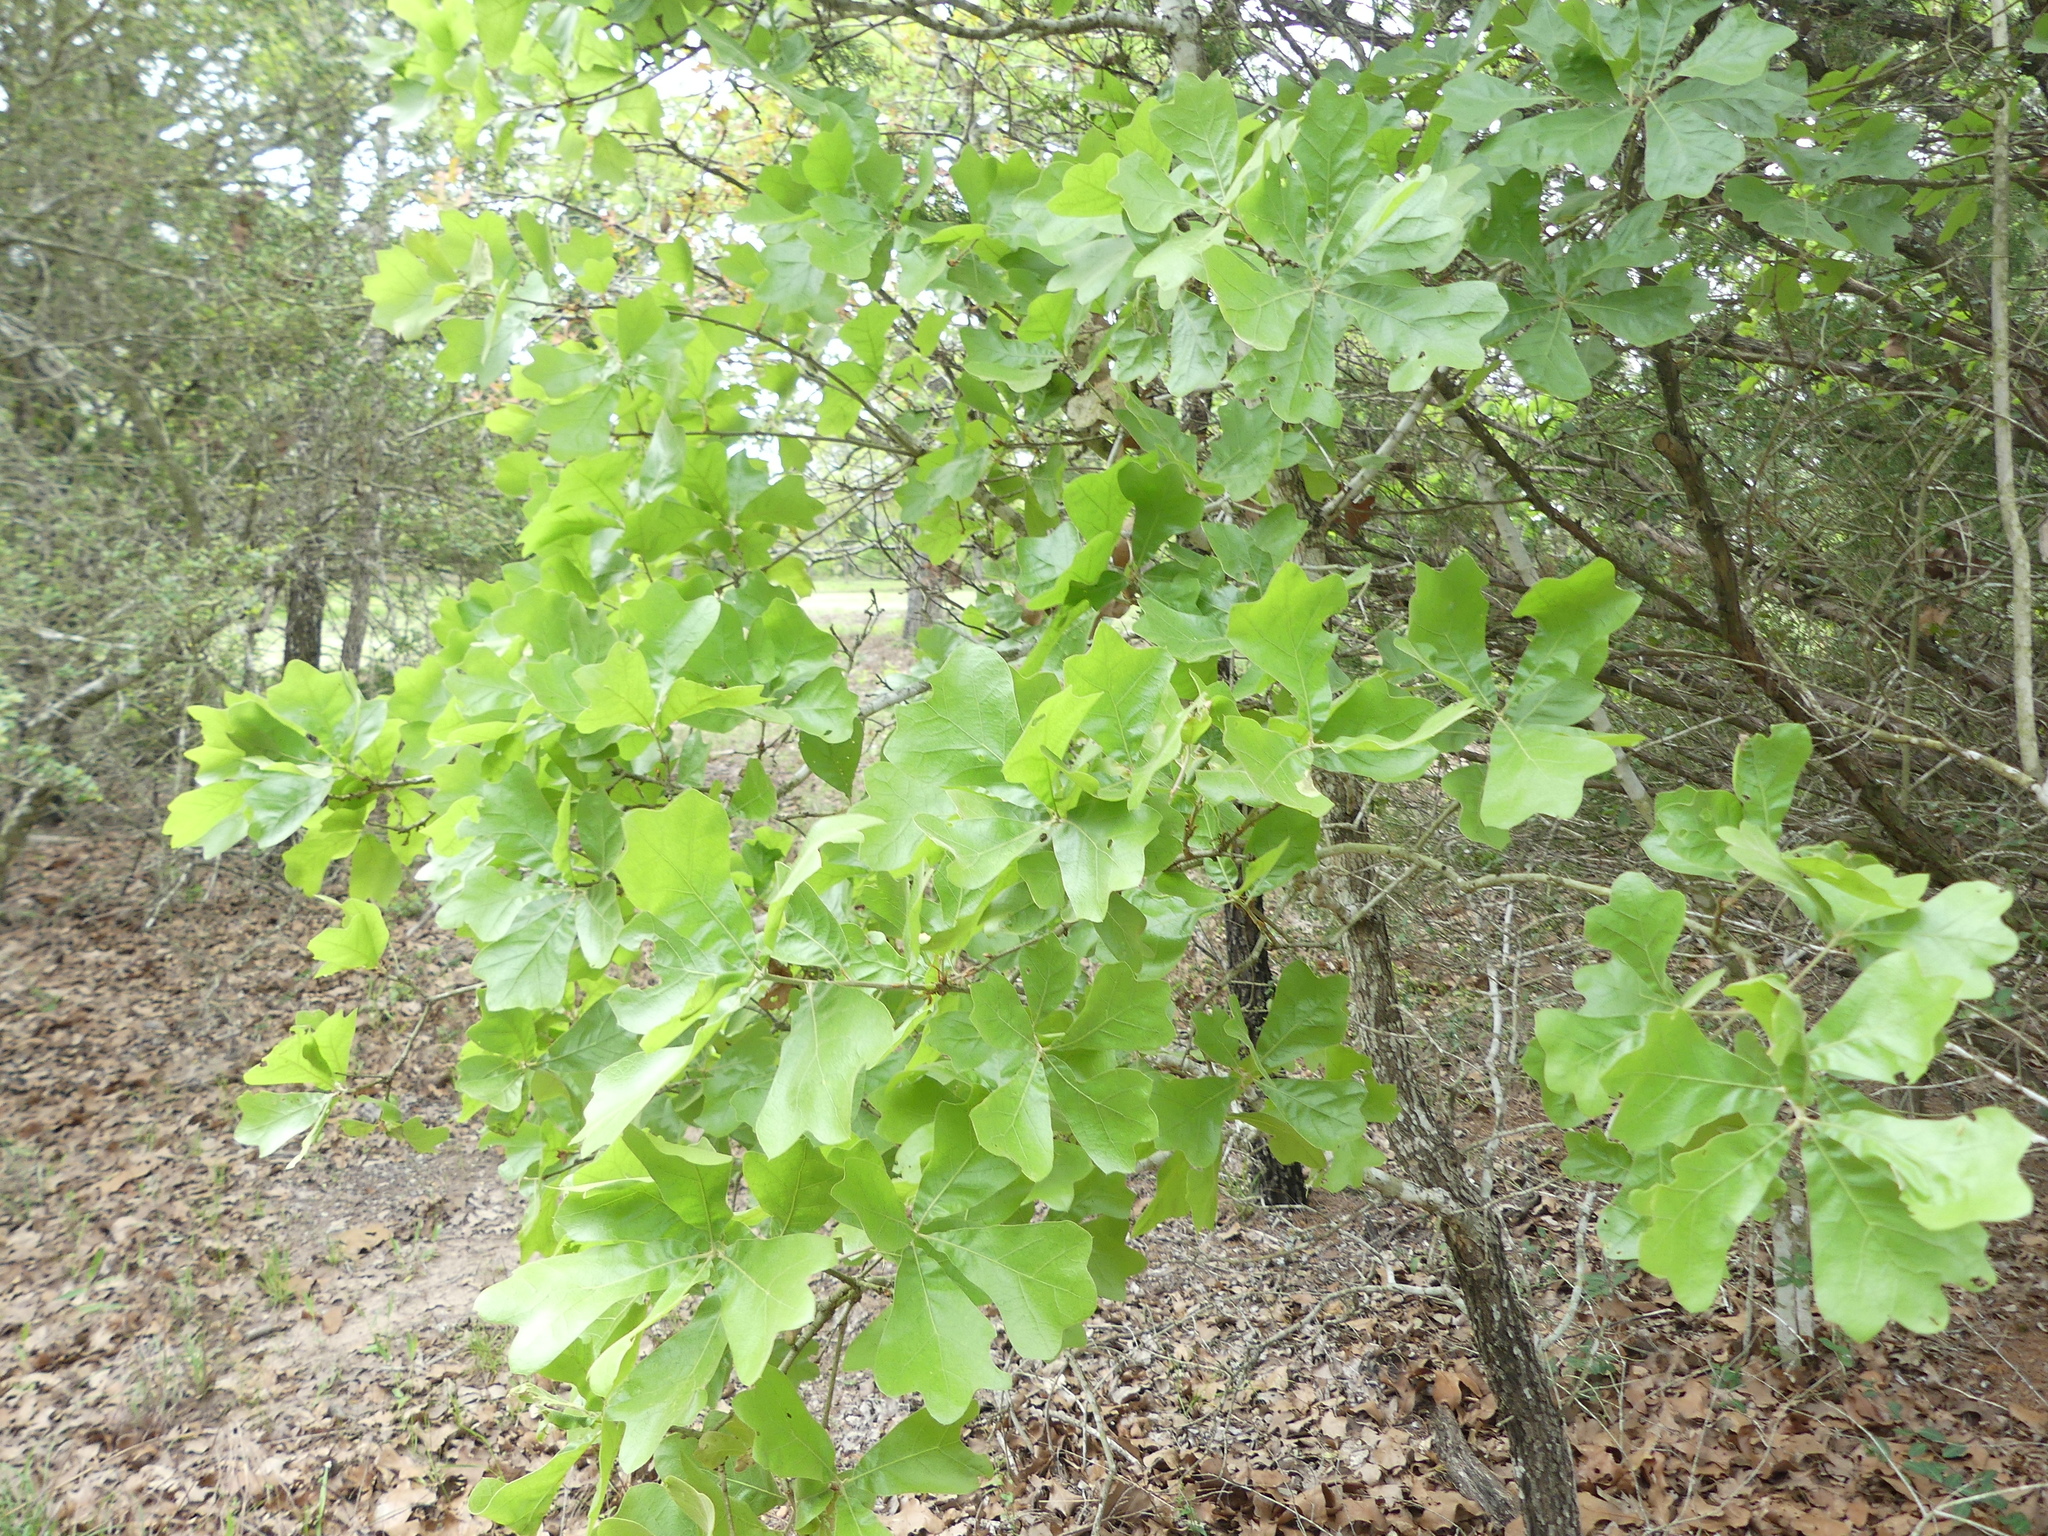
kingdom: Plantae
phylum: Tracheophyta
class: Magnoliopsida
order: Fagales
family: Fagaceae
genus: Quercus
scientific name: Quercus marilandica
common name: Blackjack oak
